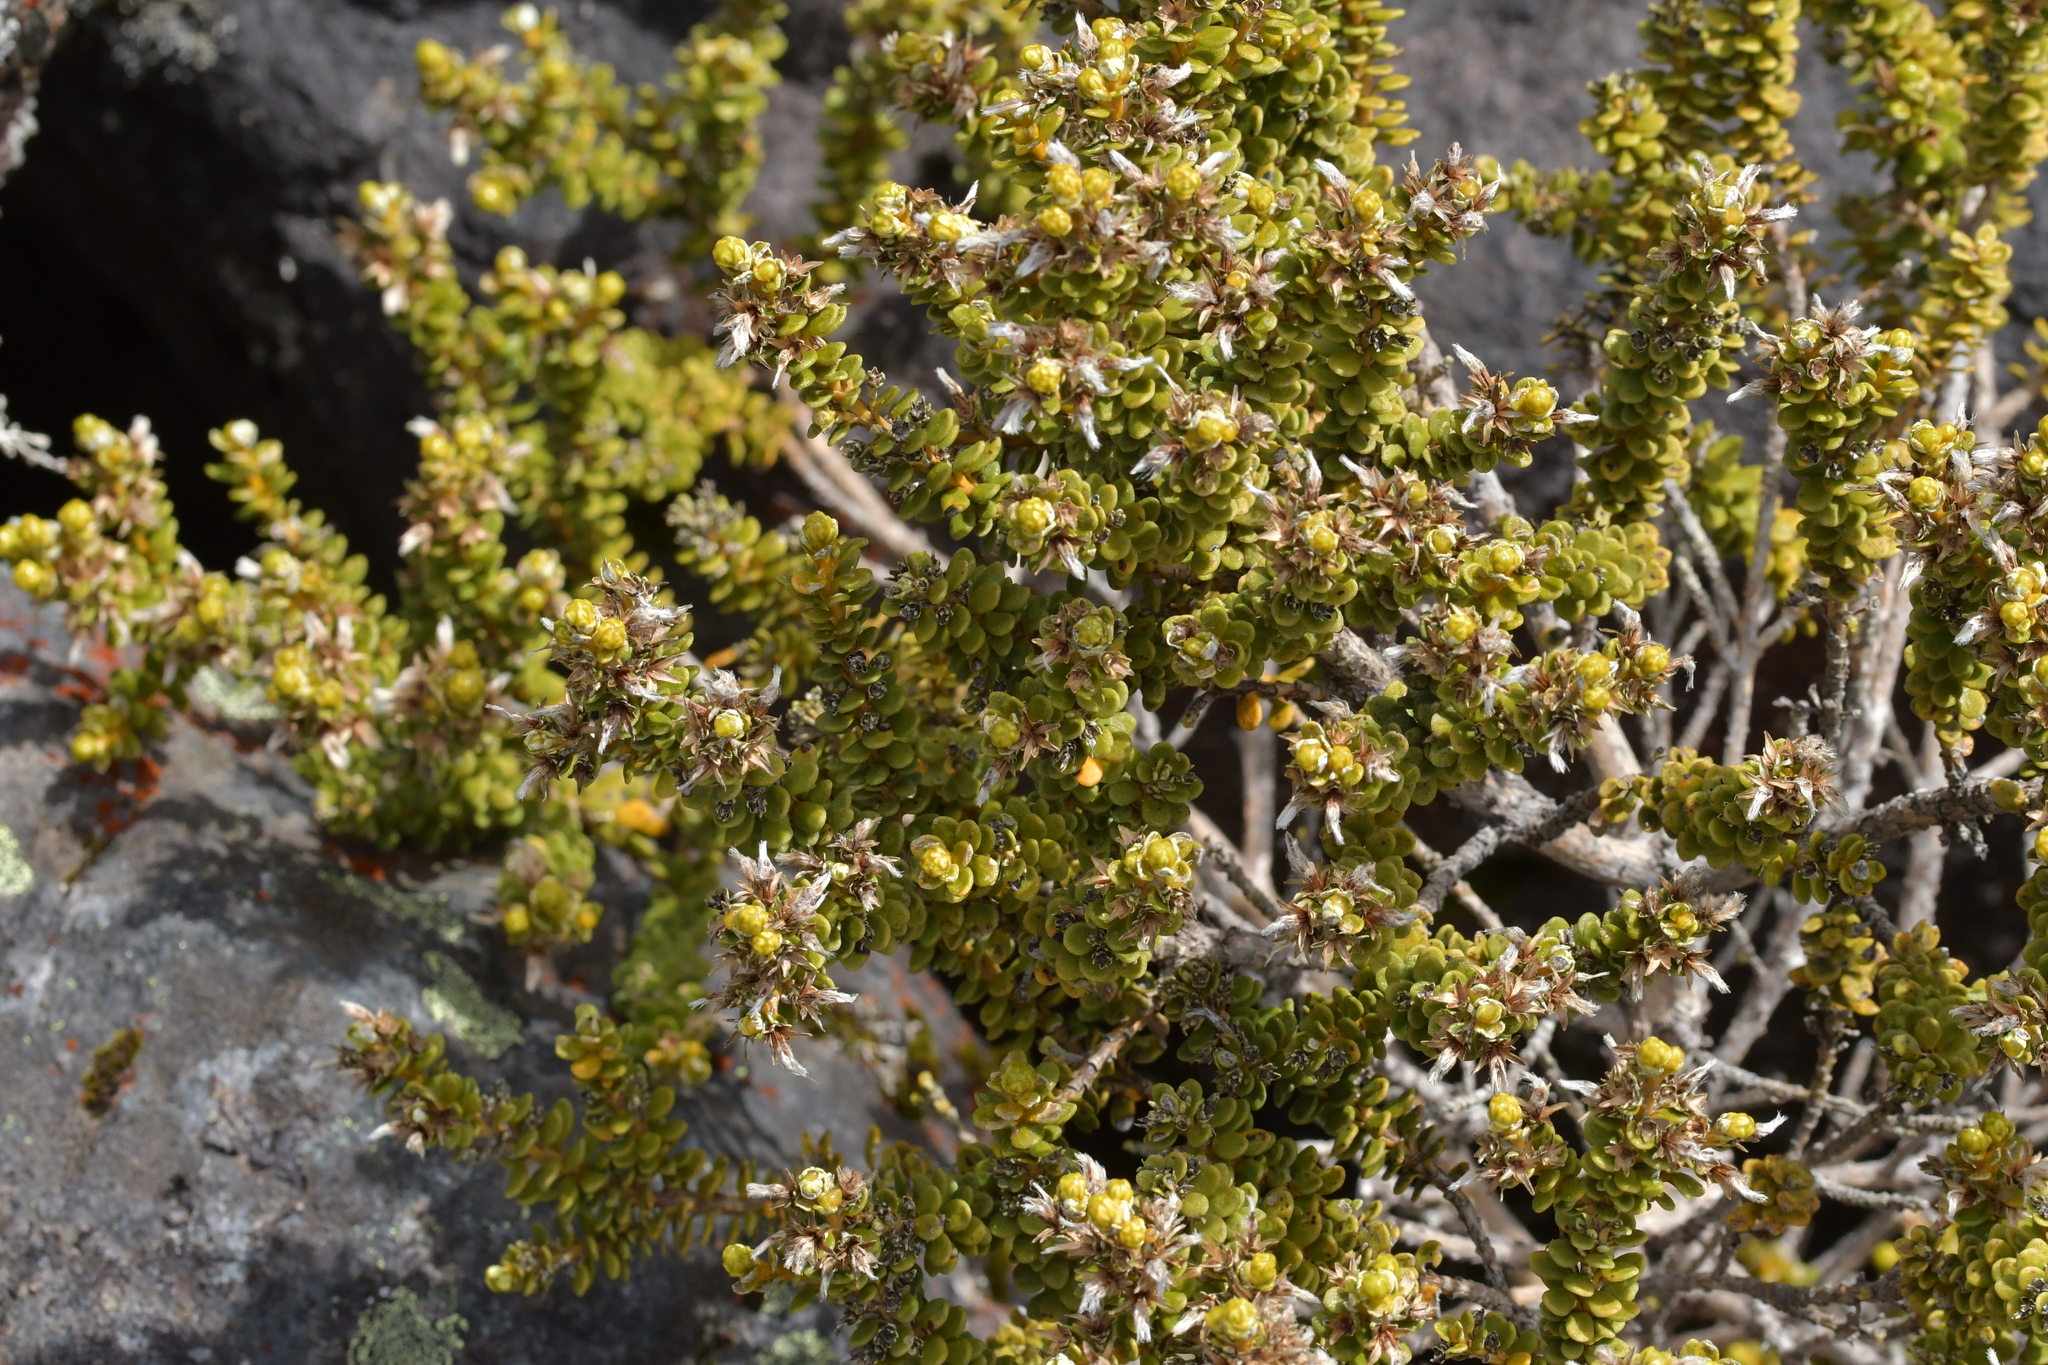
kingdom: Plantae
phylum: Tracheophyta
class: Magnoliopsida
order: Asterales
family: Asteraceae
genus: Olearia
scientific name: Olearia nummularifolia
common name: Sticky daisybush
